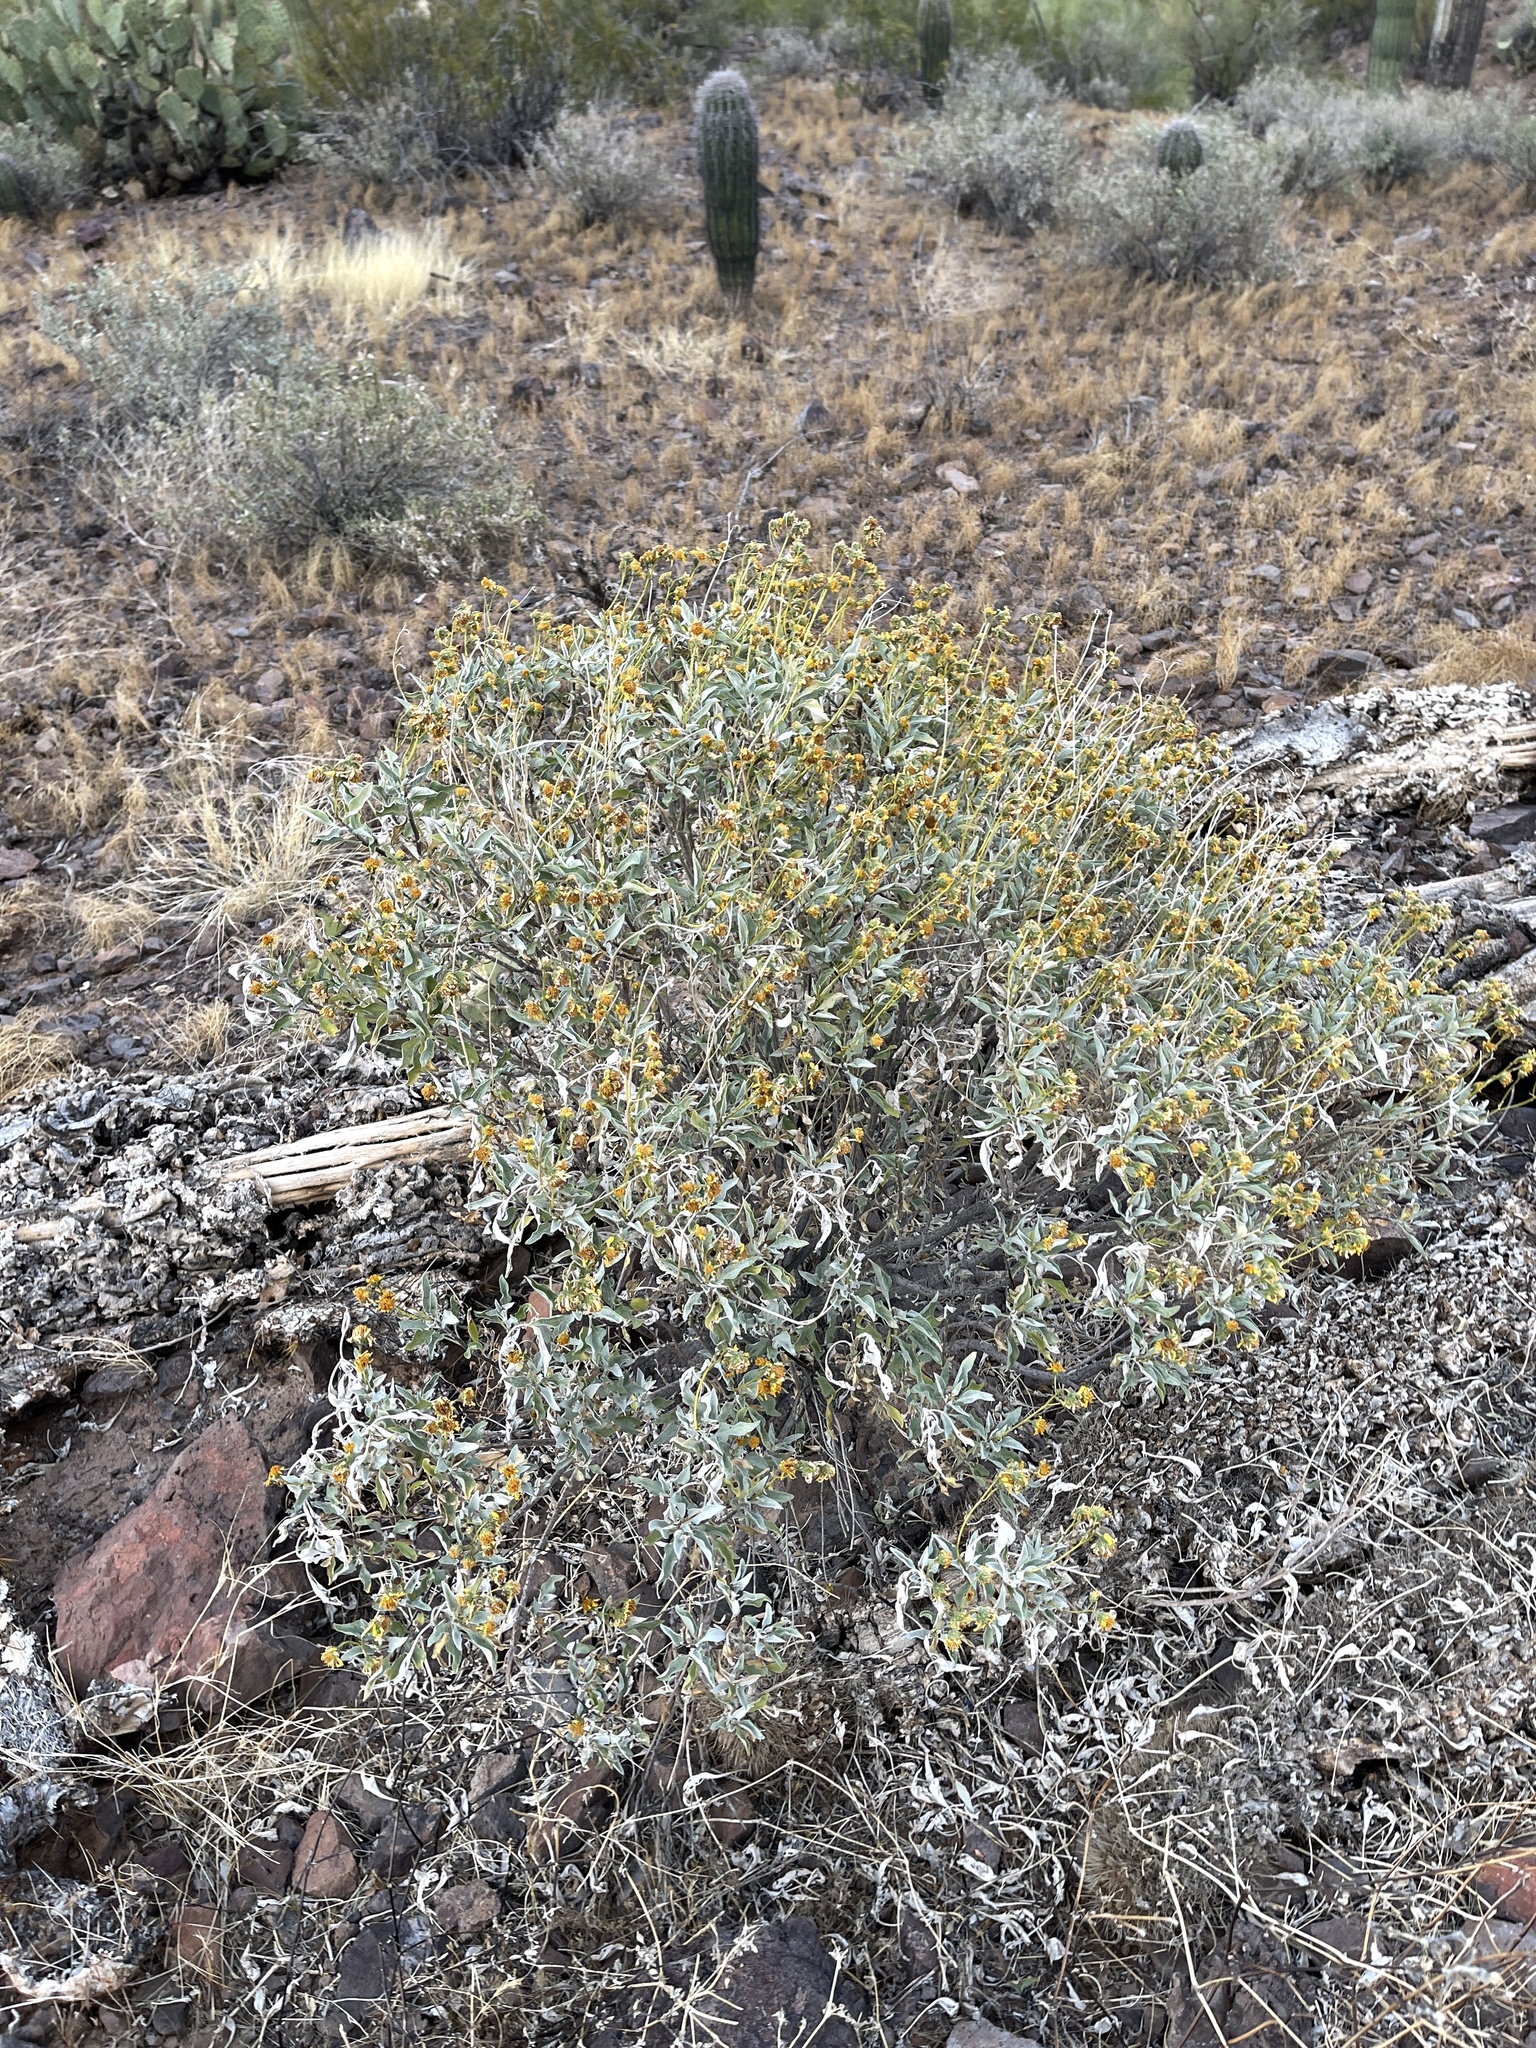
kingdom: Plantae
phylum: Tracheophyta
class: Magnoliopsida
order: Asterales
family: Asteraceae
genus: Encelia
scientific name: Encelia farinosa
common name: Brittlebush
